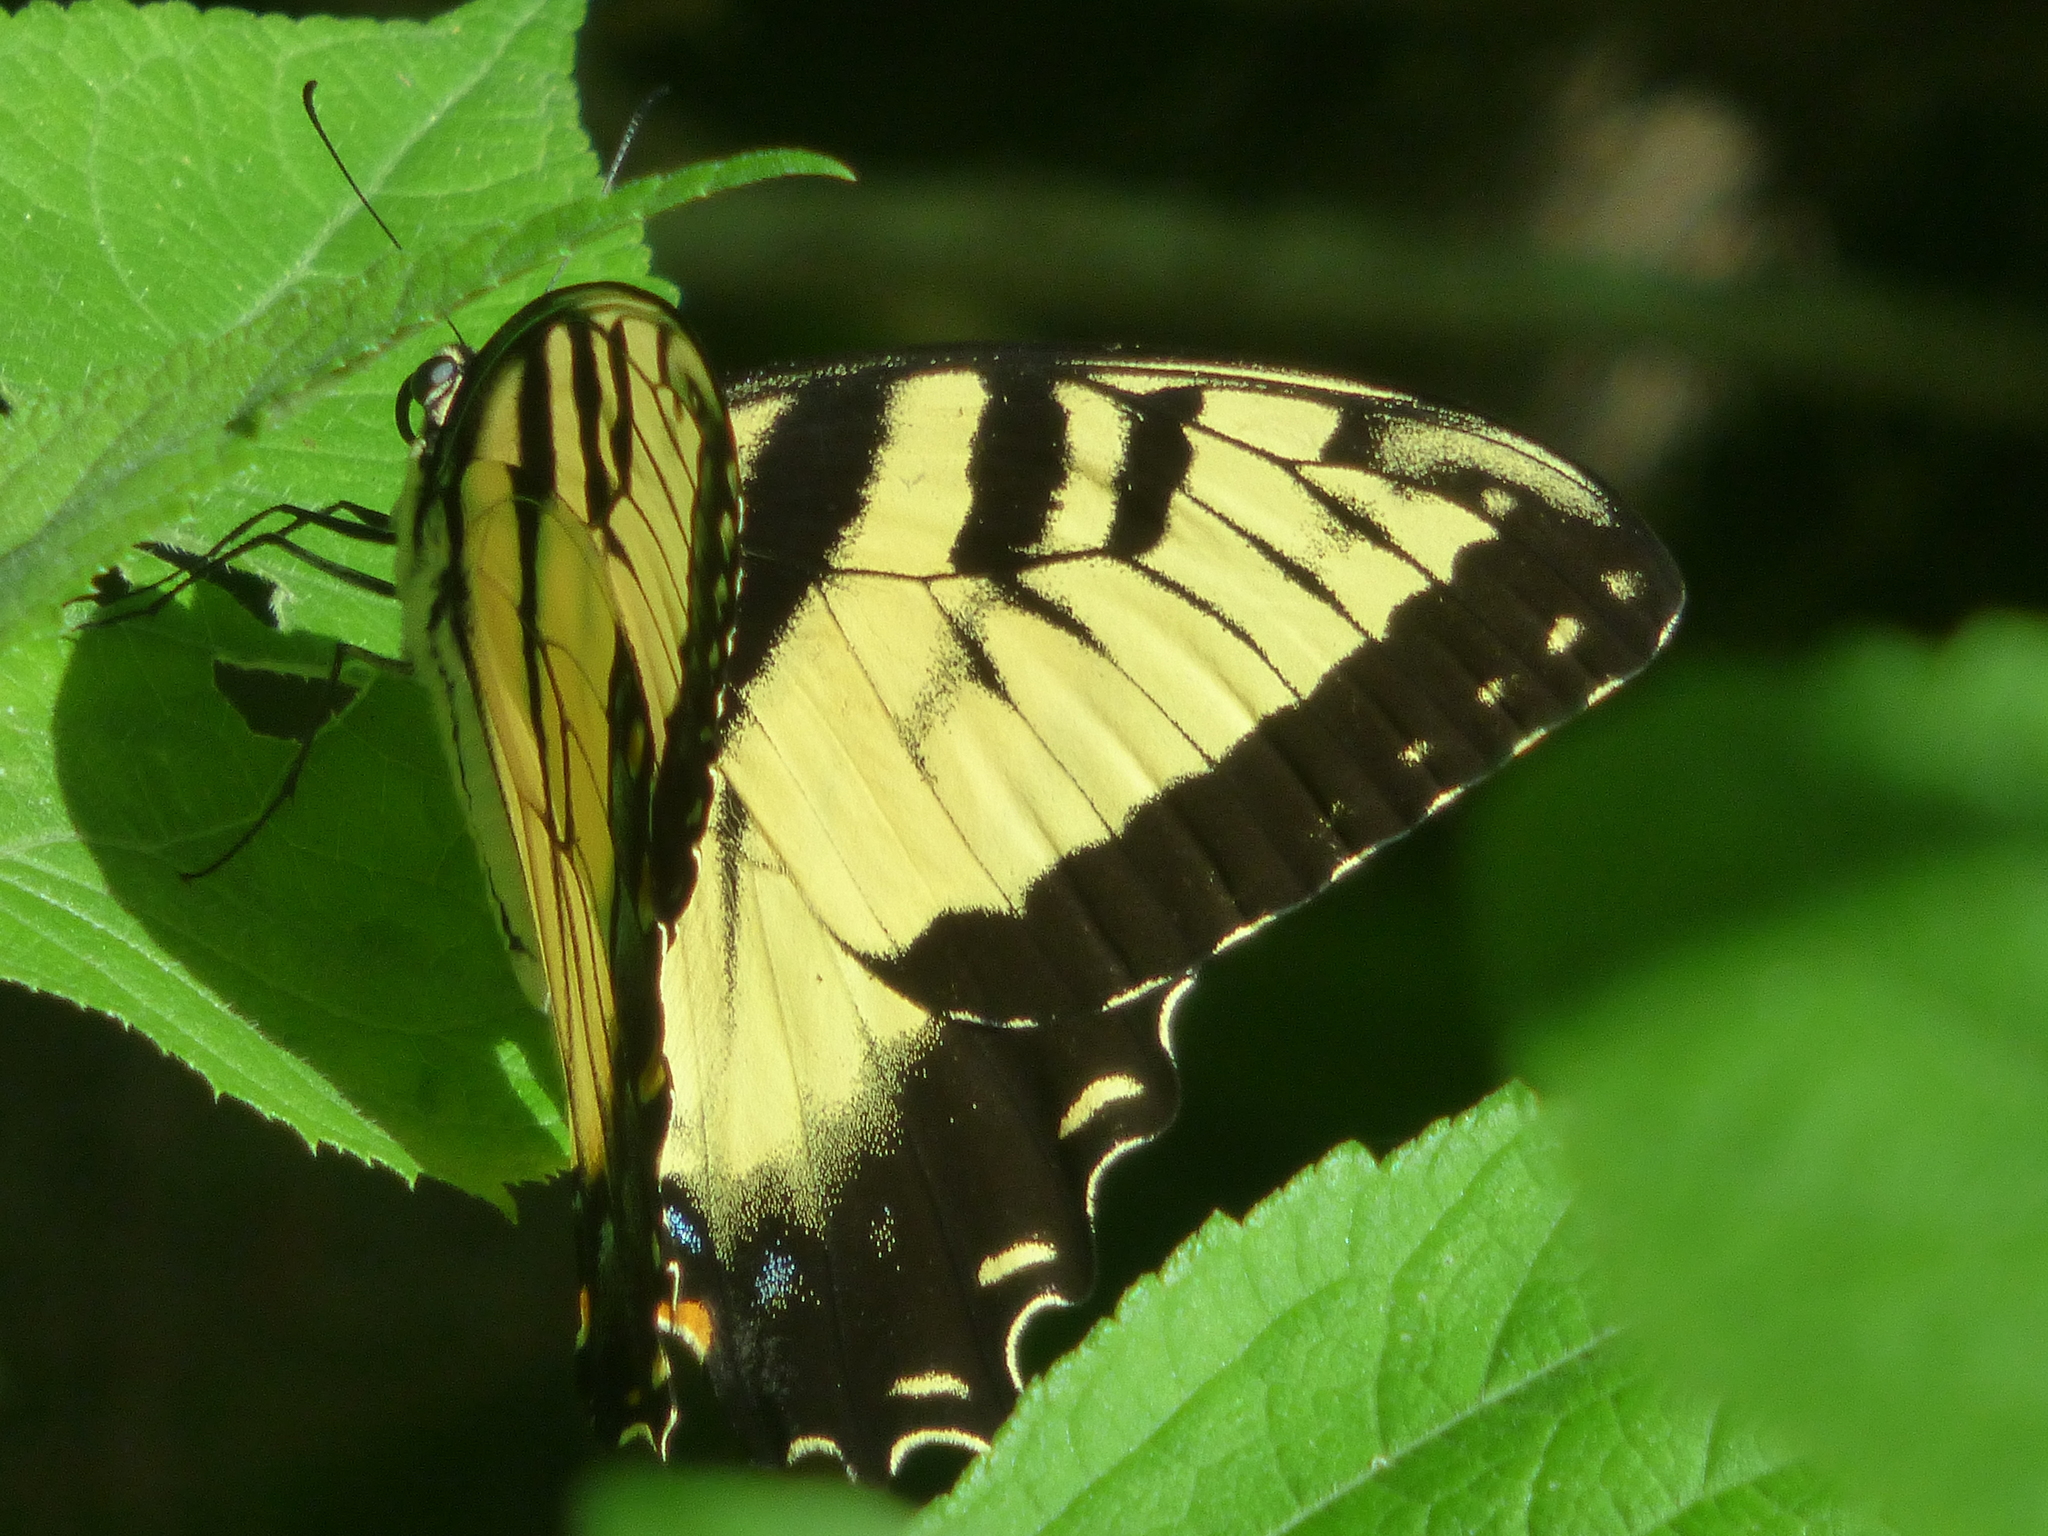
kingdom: Animalia
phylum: Arthropoda
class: Insecta
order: Lepidoptera
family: Papilionidae
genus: Papilio
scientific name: Papilio glaucus
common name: Tiger swallowtail
